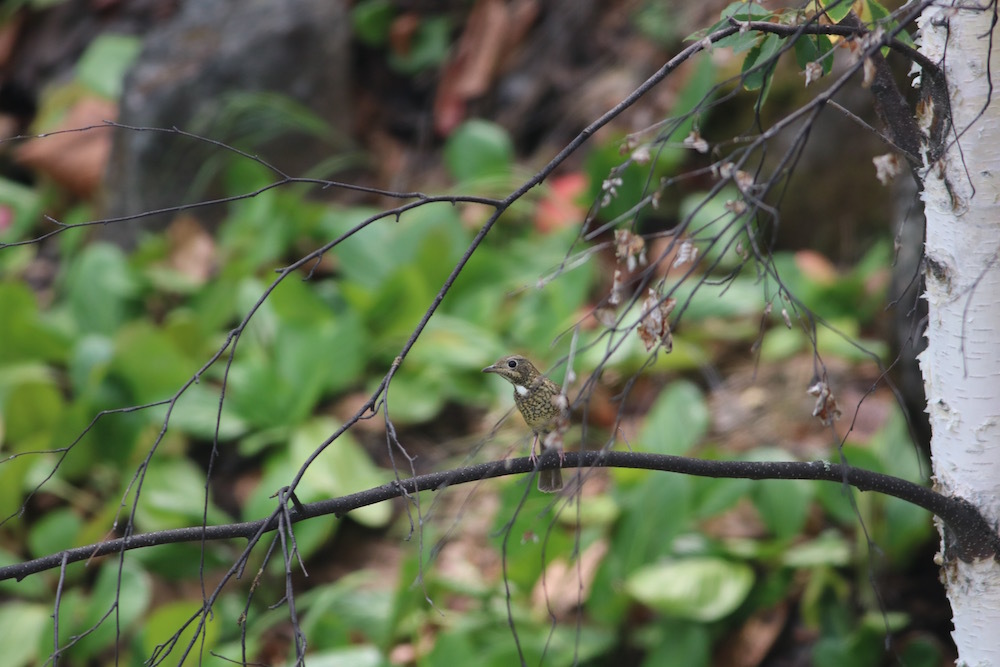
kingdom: Animalia
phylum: Chordata
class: Aves
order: Passeriformes
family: Muscicapidae
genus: Monticola
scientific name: Monticola gularis
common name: White-throated rock thrush
